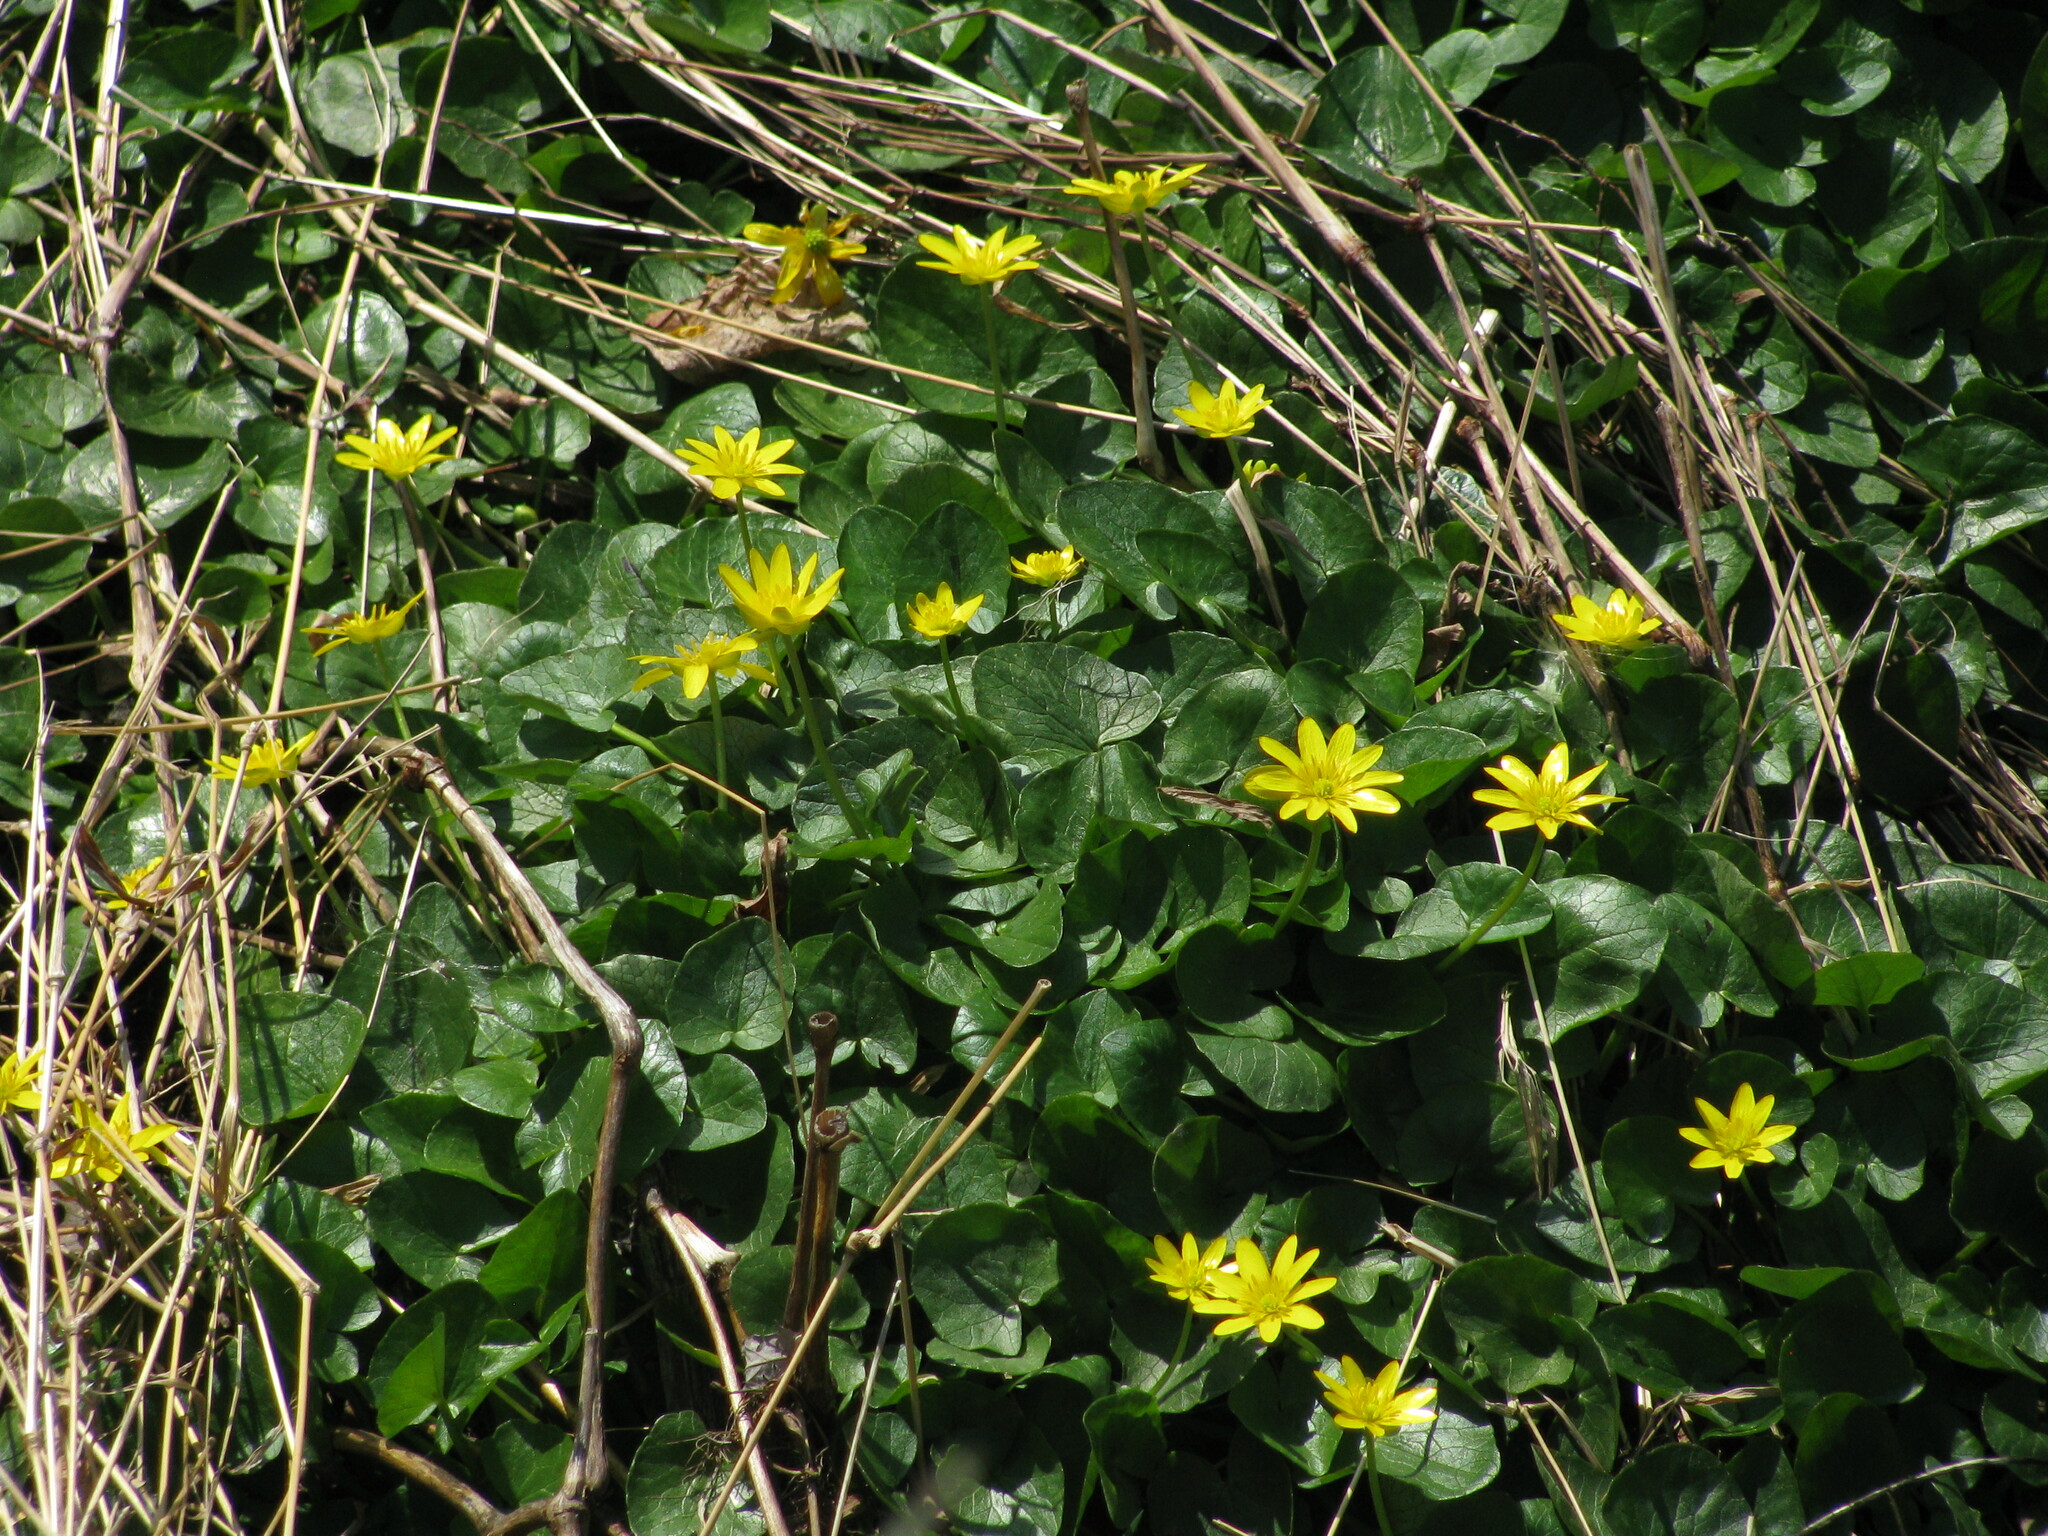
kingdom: Plantae
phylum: Tracheophyta
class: Magnoliopsida
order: Ranunculales
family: Ranunculaceae
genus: Ficaria
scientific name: Ficaria verna
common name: Lesser celandine
